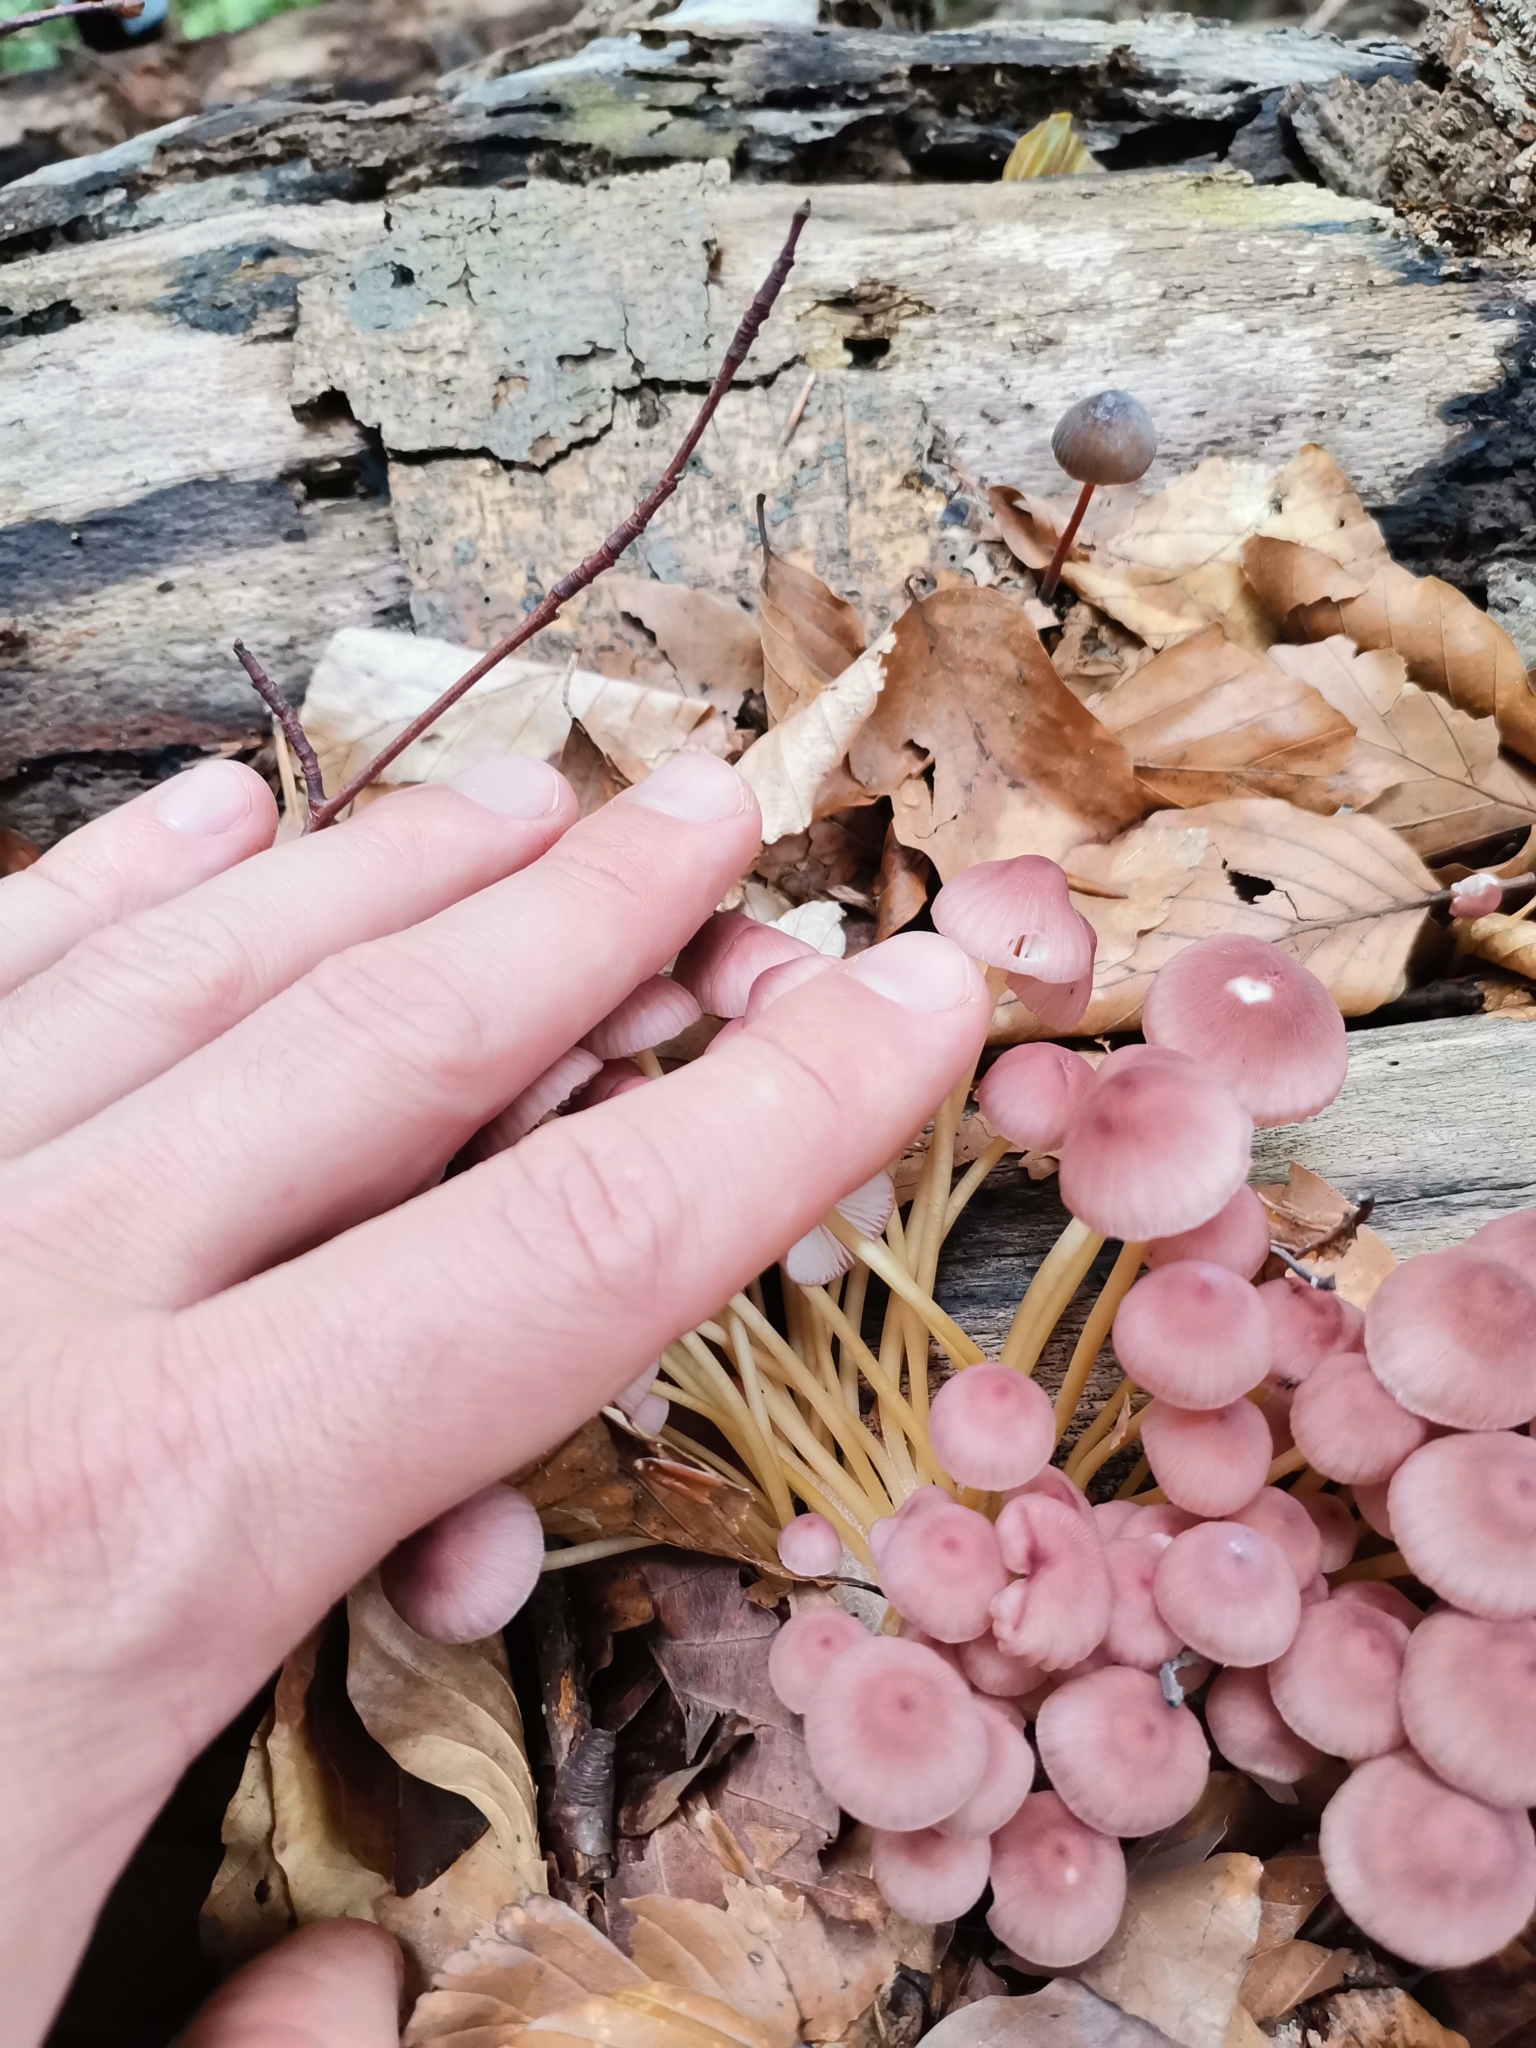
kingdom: Fungi
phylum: Basidiomycota
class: Agaricomycetes
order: Agaricales
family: Mycenaceae
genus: Mycena
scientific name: Mycena renati
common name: Beautiful bonnet
